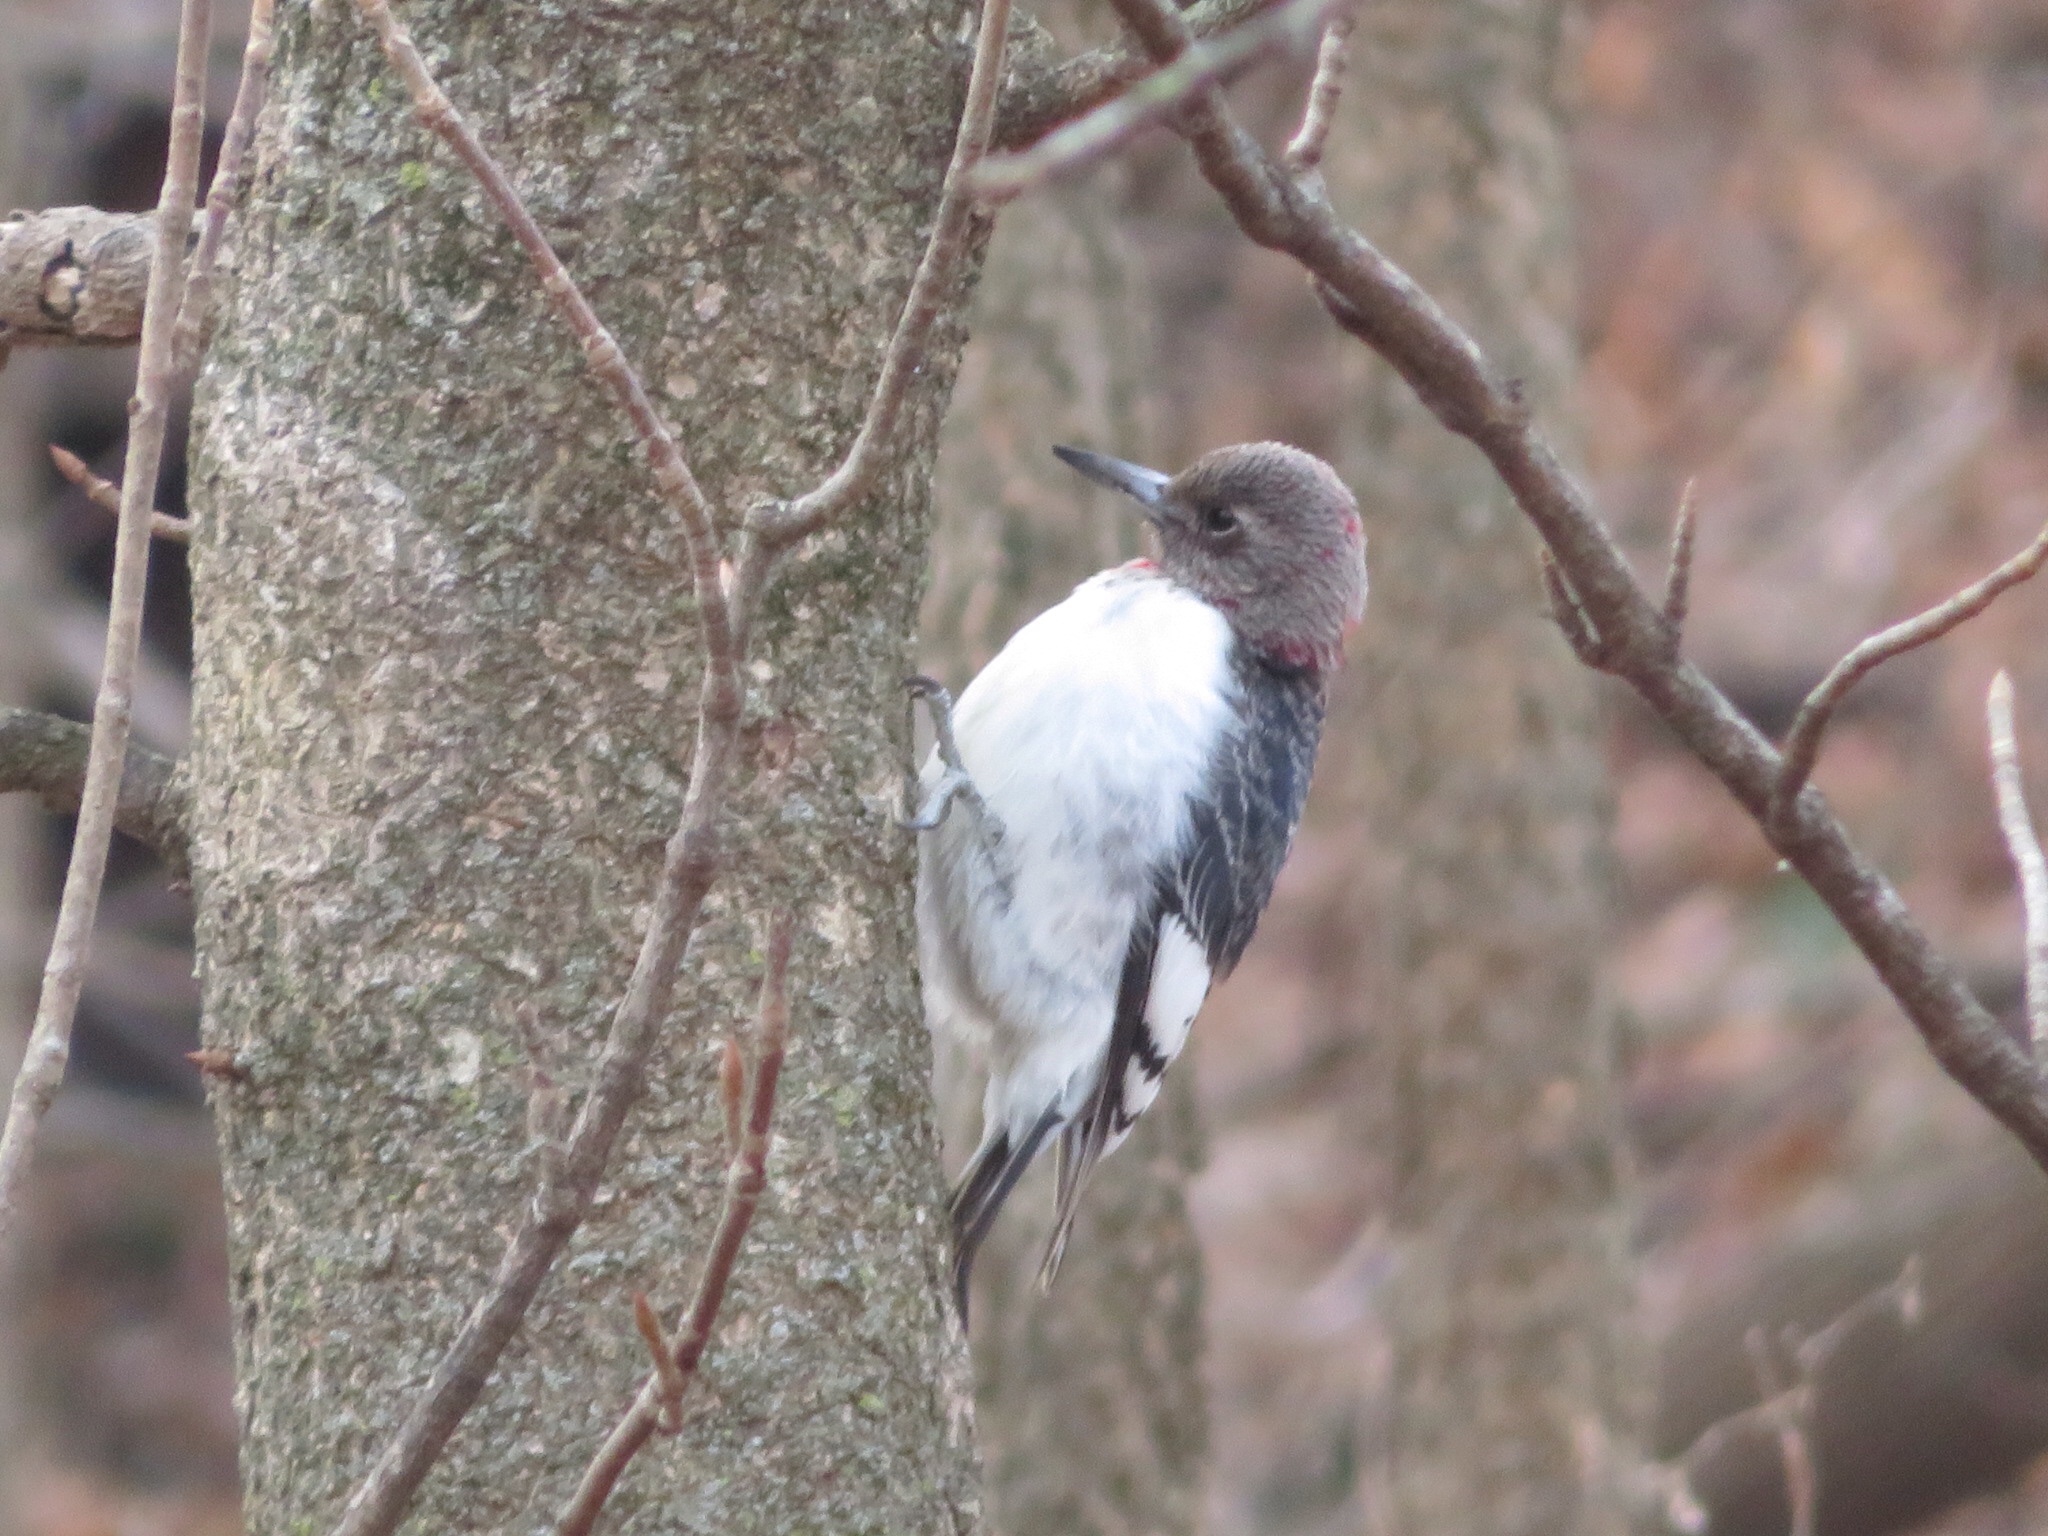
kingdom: Animalia
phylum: Chordata
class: Aves
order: Piciformes
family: Picidae
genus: Melanerpes
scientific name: Melanerpes erythrocephalus
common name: Red-headed woodpecker
